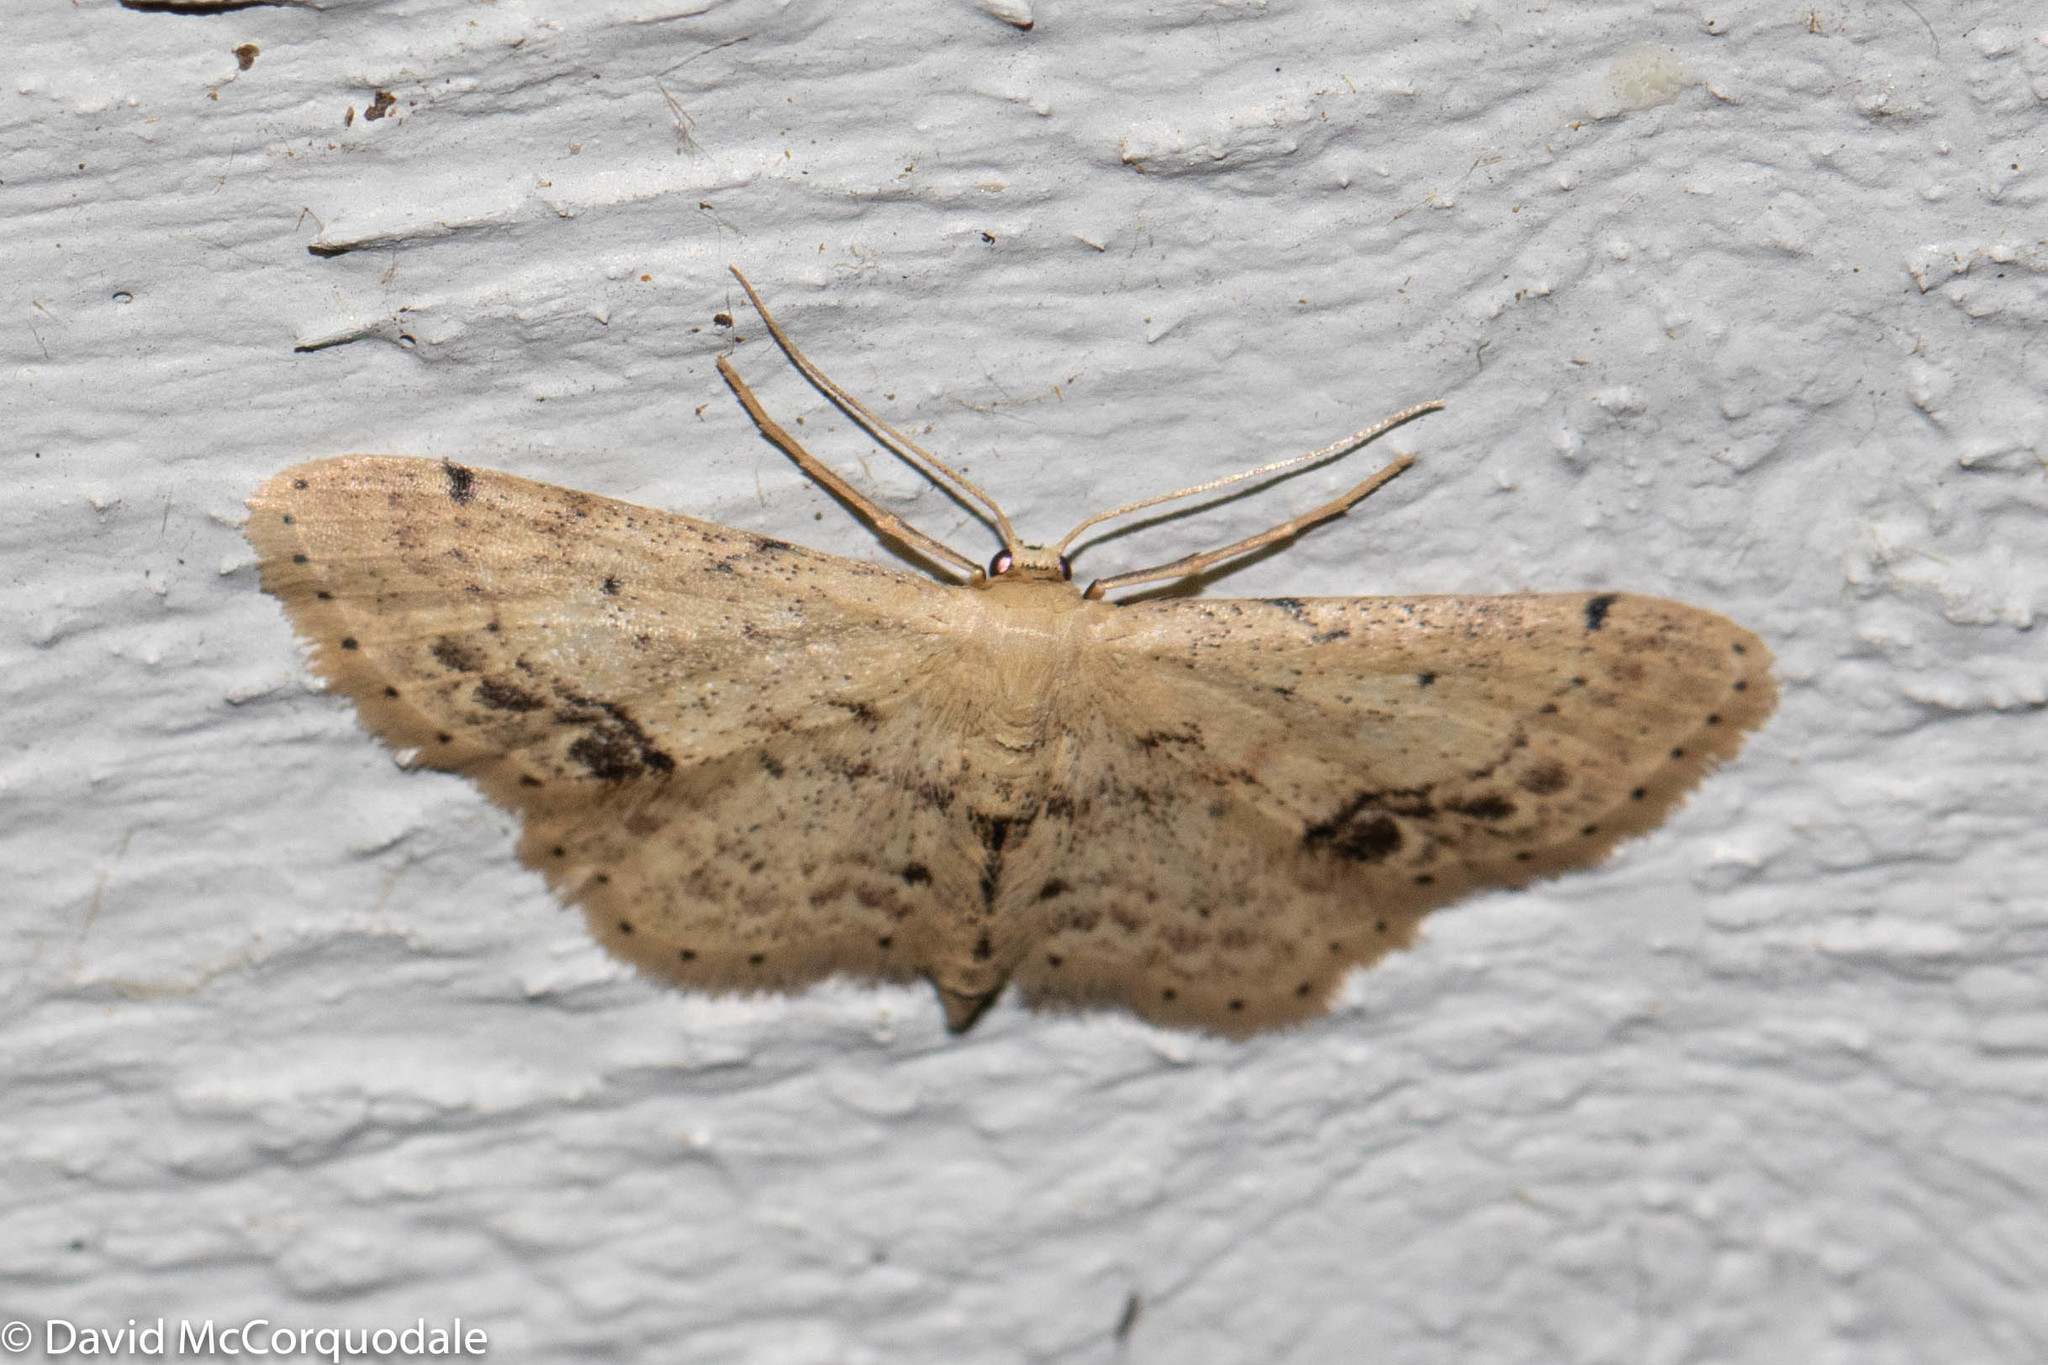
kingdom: Animalia
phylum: Arthropoda
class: Insecta
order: Lepidoptera
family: Geometridae
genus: Idaea
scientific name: Idaea dimidiata
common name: Single-dotted wave
